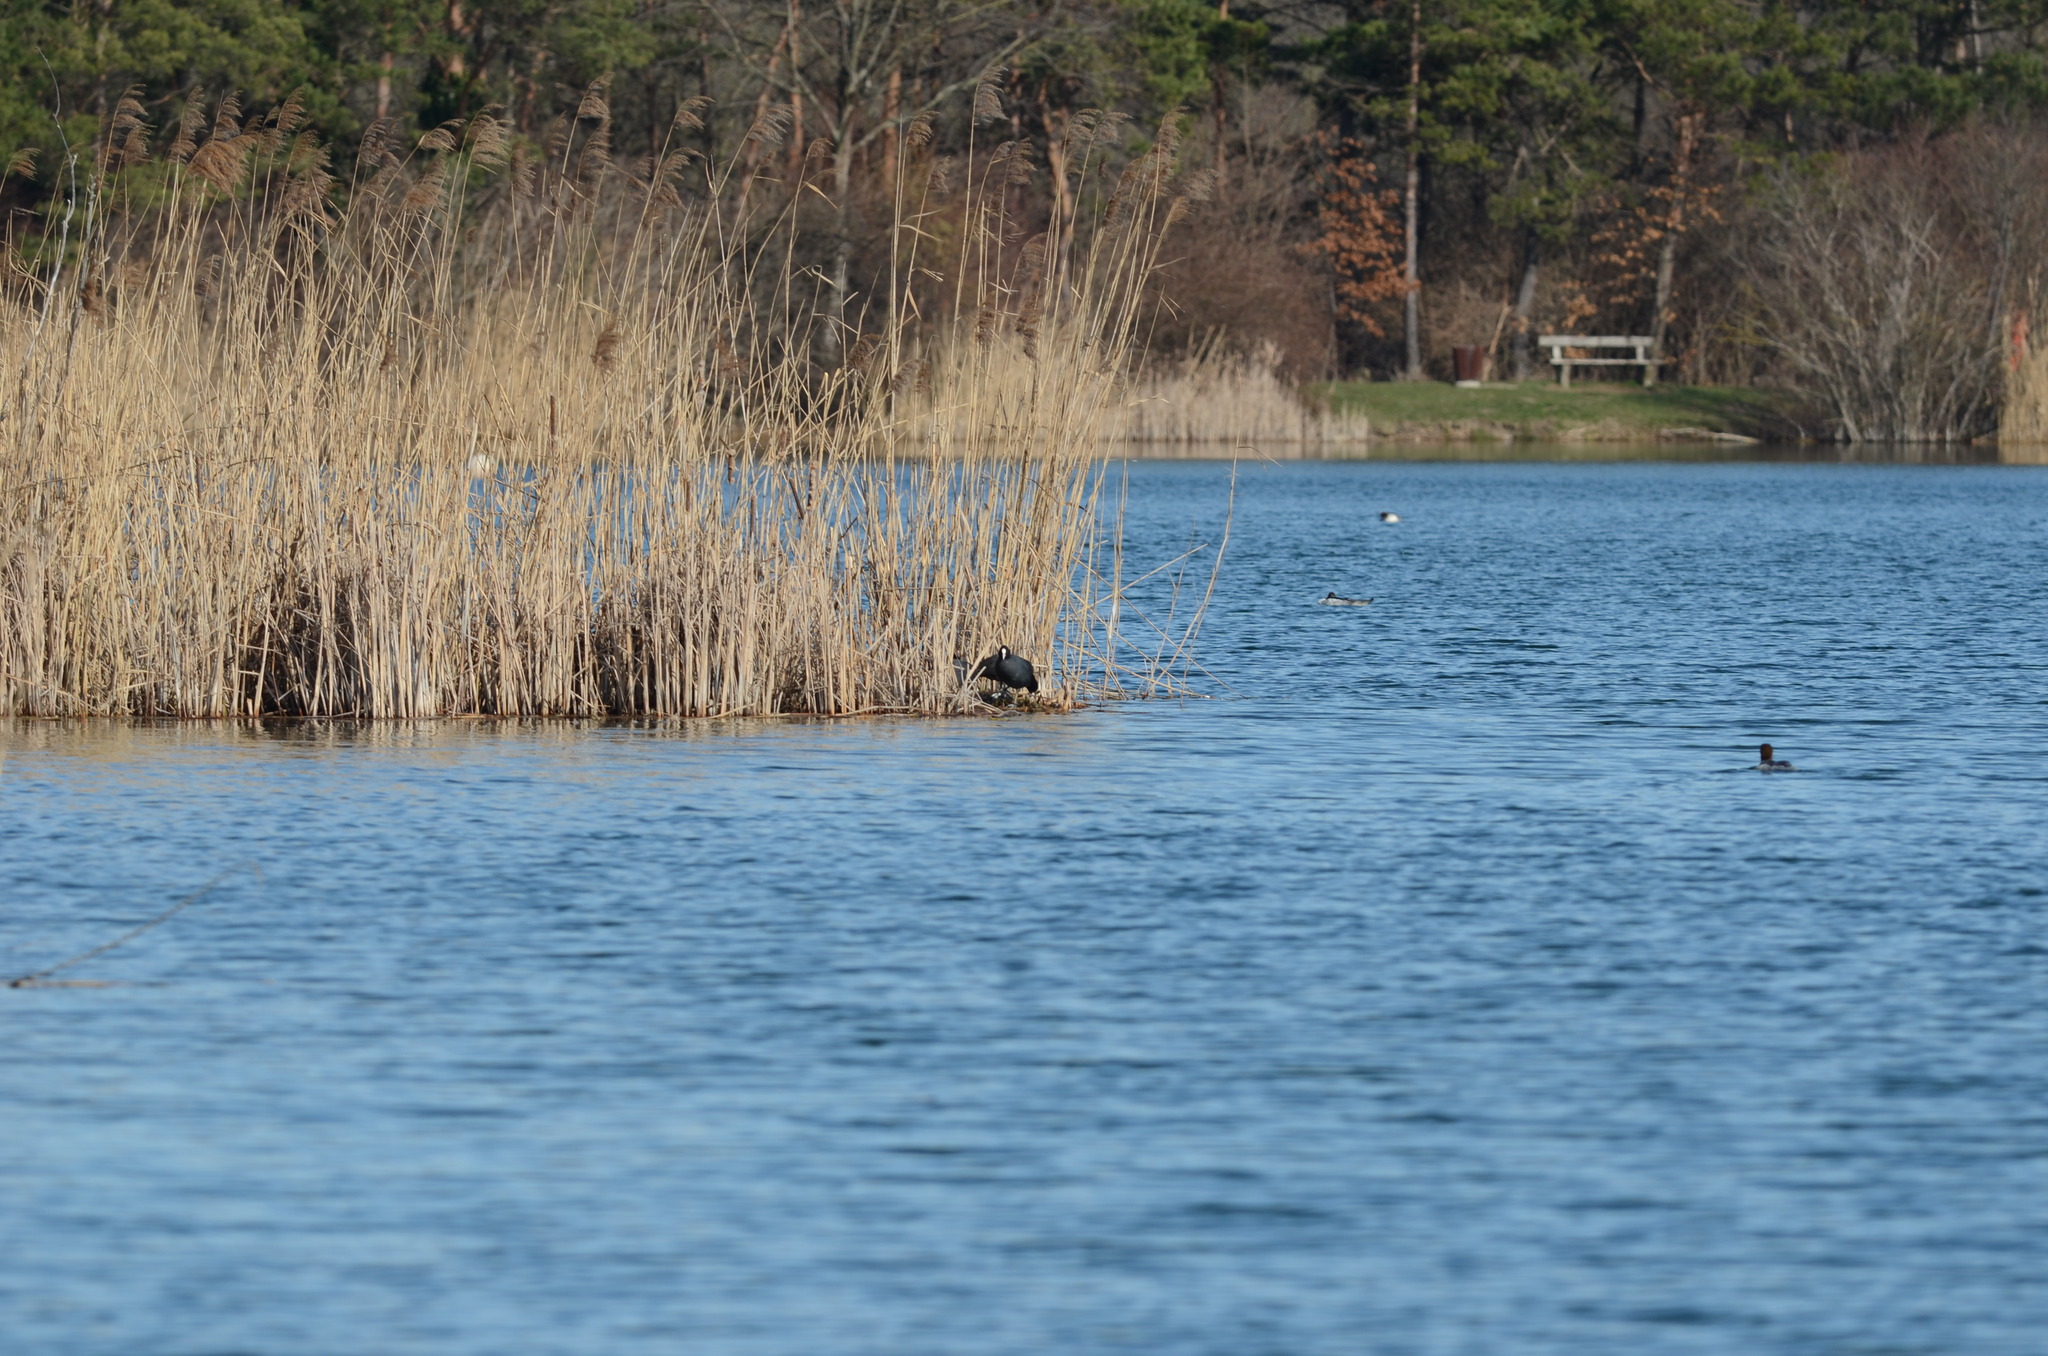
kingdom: Animalia
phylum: Chordata
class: Aves
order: Gruiformes
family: Rallidae
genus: Fulica
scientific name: Fulica atra
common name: Eurasian coot
